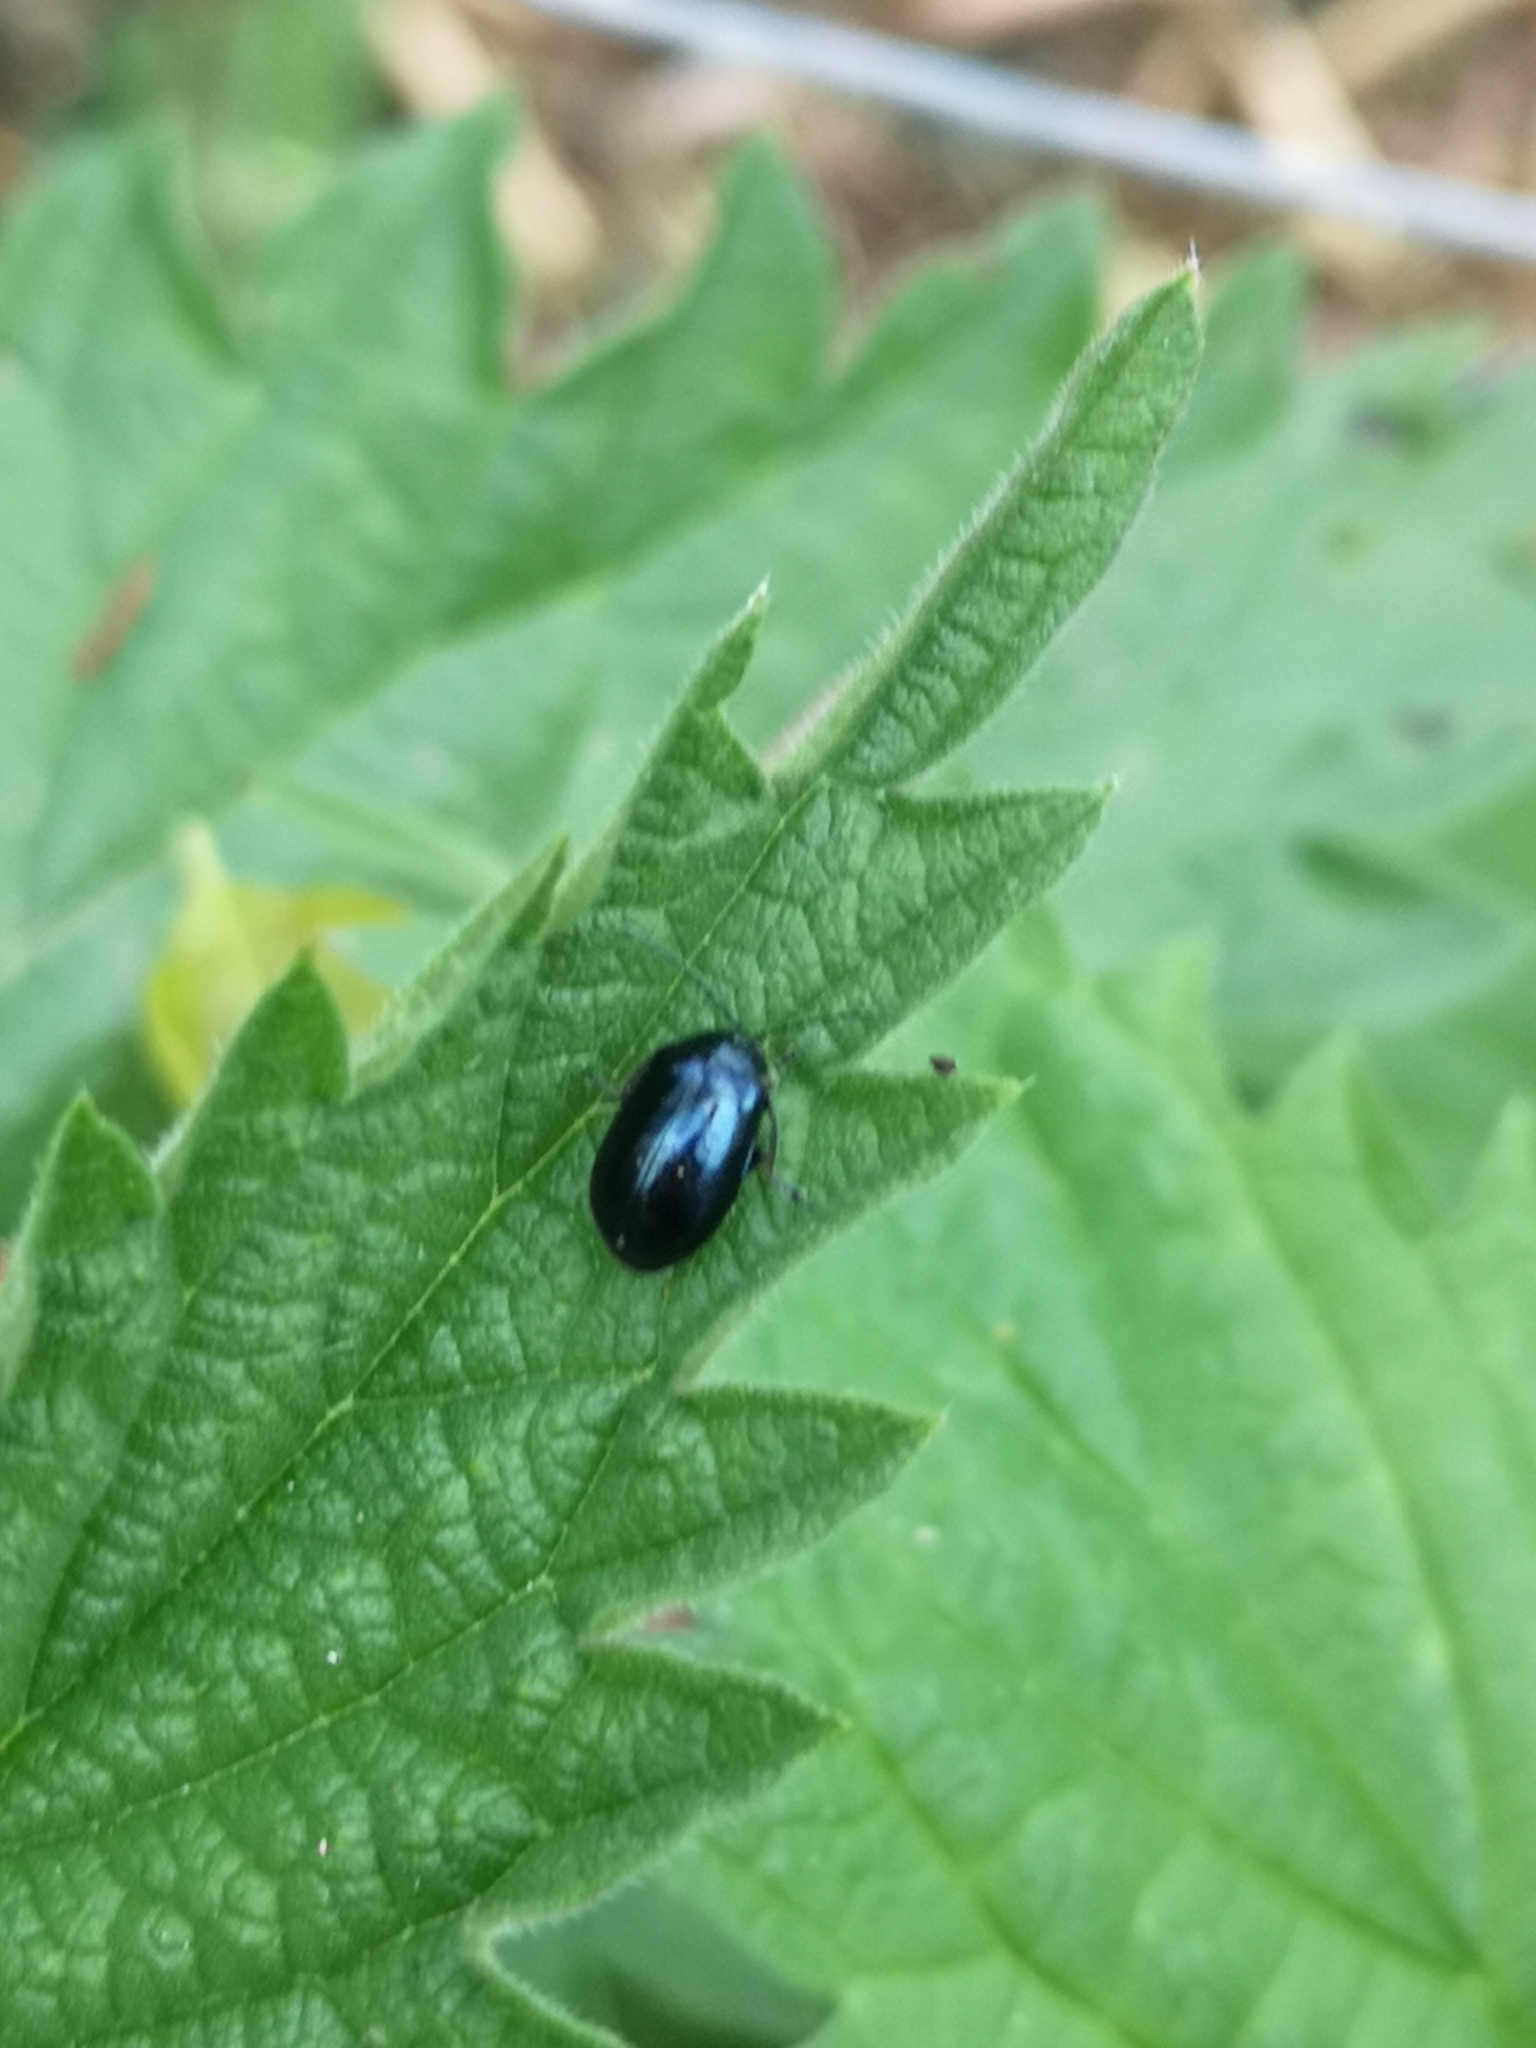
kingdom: Animalia
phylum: Arthropoda
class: Insecta
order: Coleoptera
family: Chrysomelidae
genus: Agelastica
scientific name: Agelastica alni
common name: Alder leaf beetle
